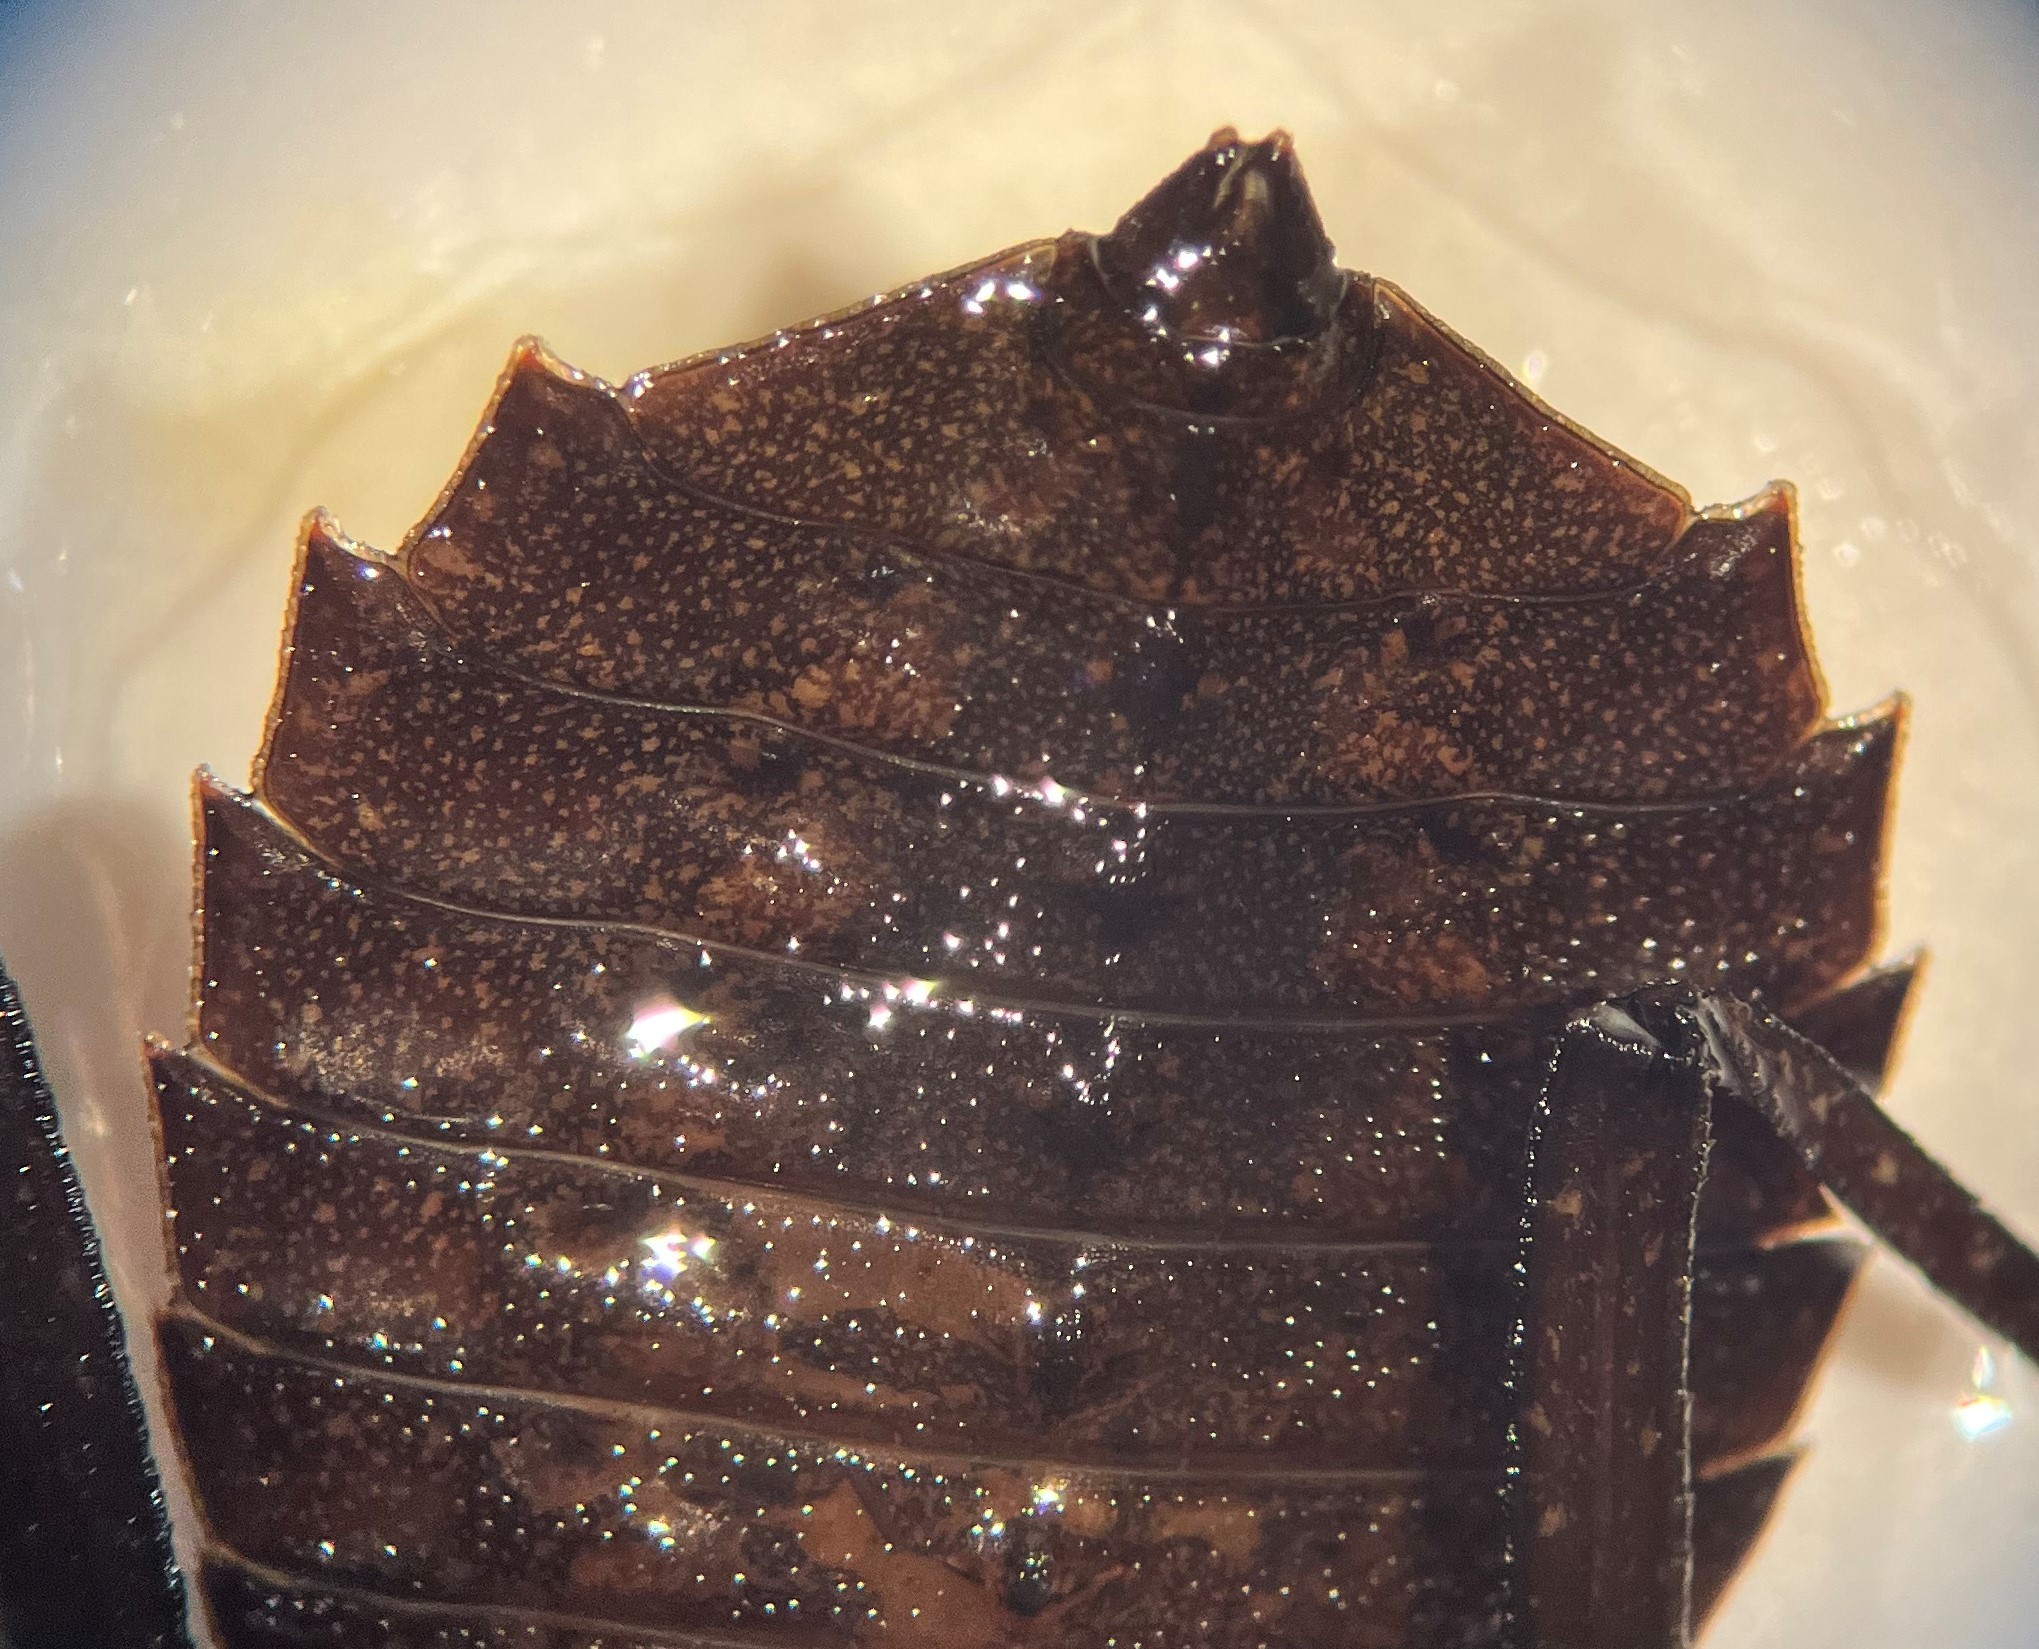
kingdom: Animalia
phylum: Arthropoda
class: Insecta
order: Odonata
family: Gomphidae
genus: Hagenius
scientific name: Hagenius brevistylus
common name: Dragonhunter
